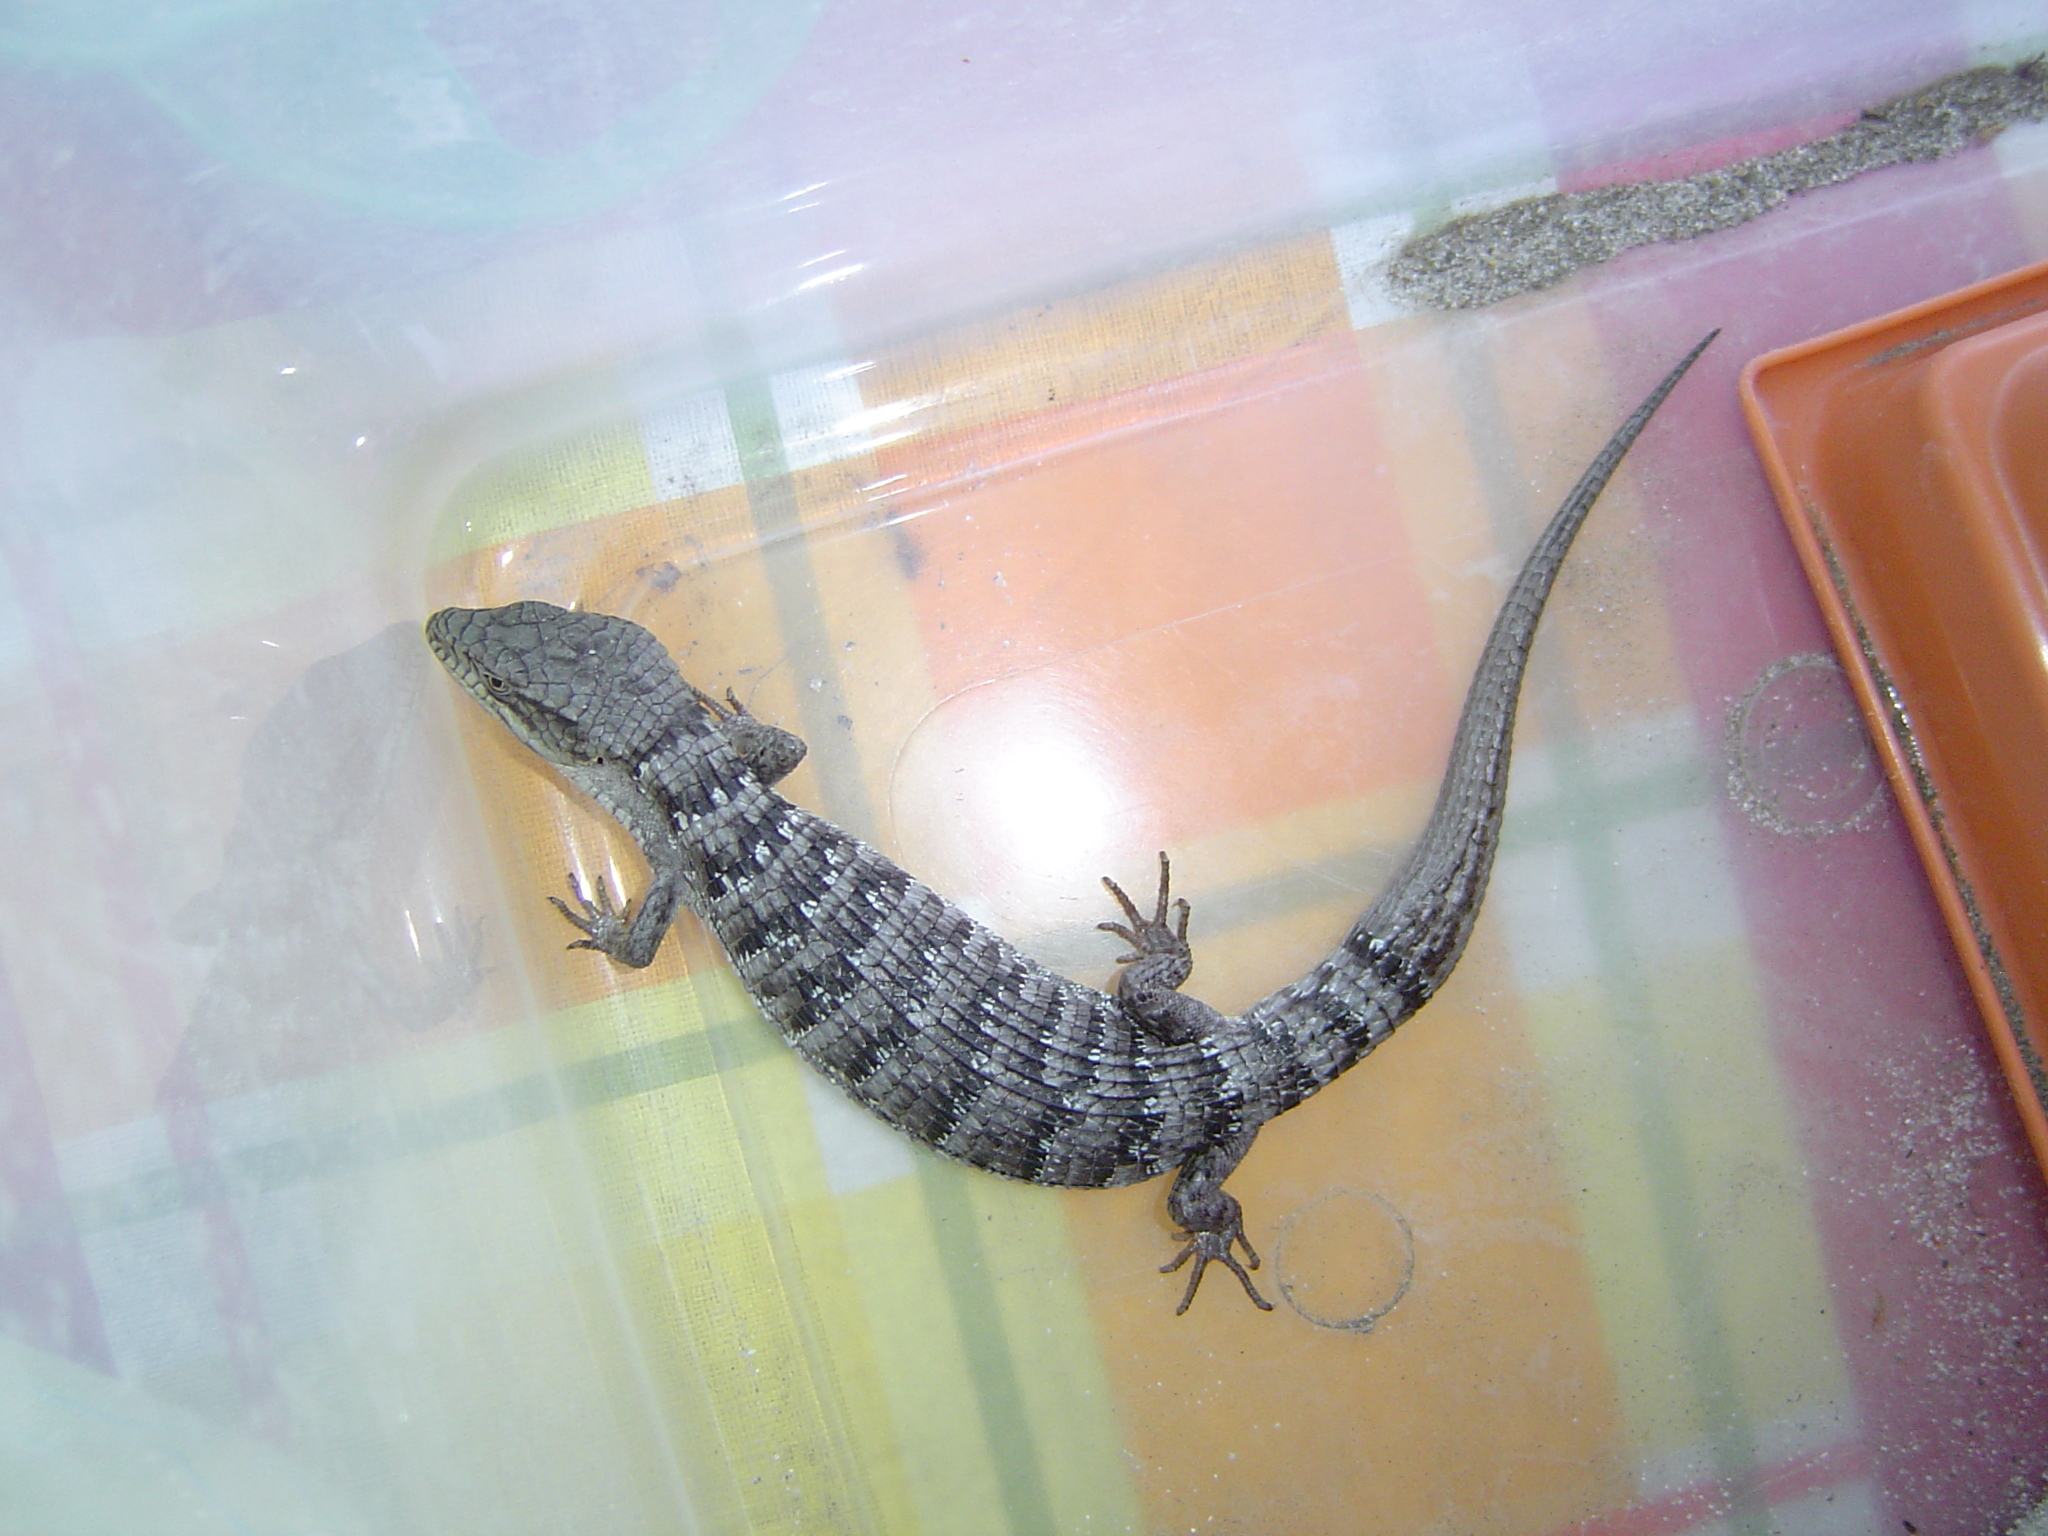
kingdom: Animalia
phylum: Chordata
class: Squamata
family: Anguidae
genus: Elgaria
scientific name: Elgaria multicarinata
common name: Southern alligator lizard
